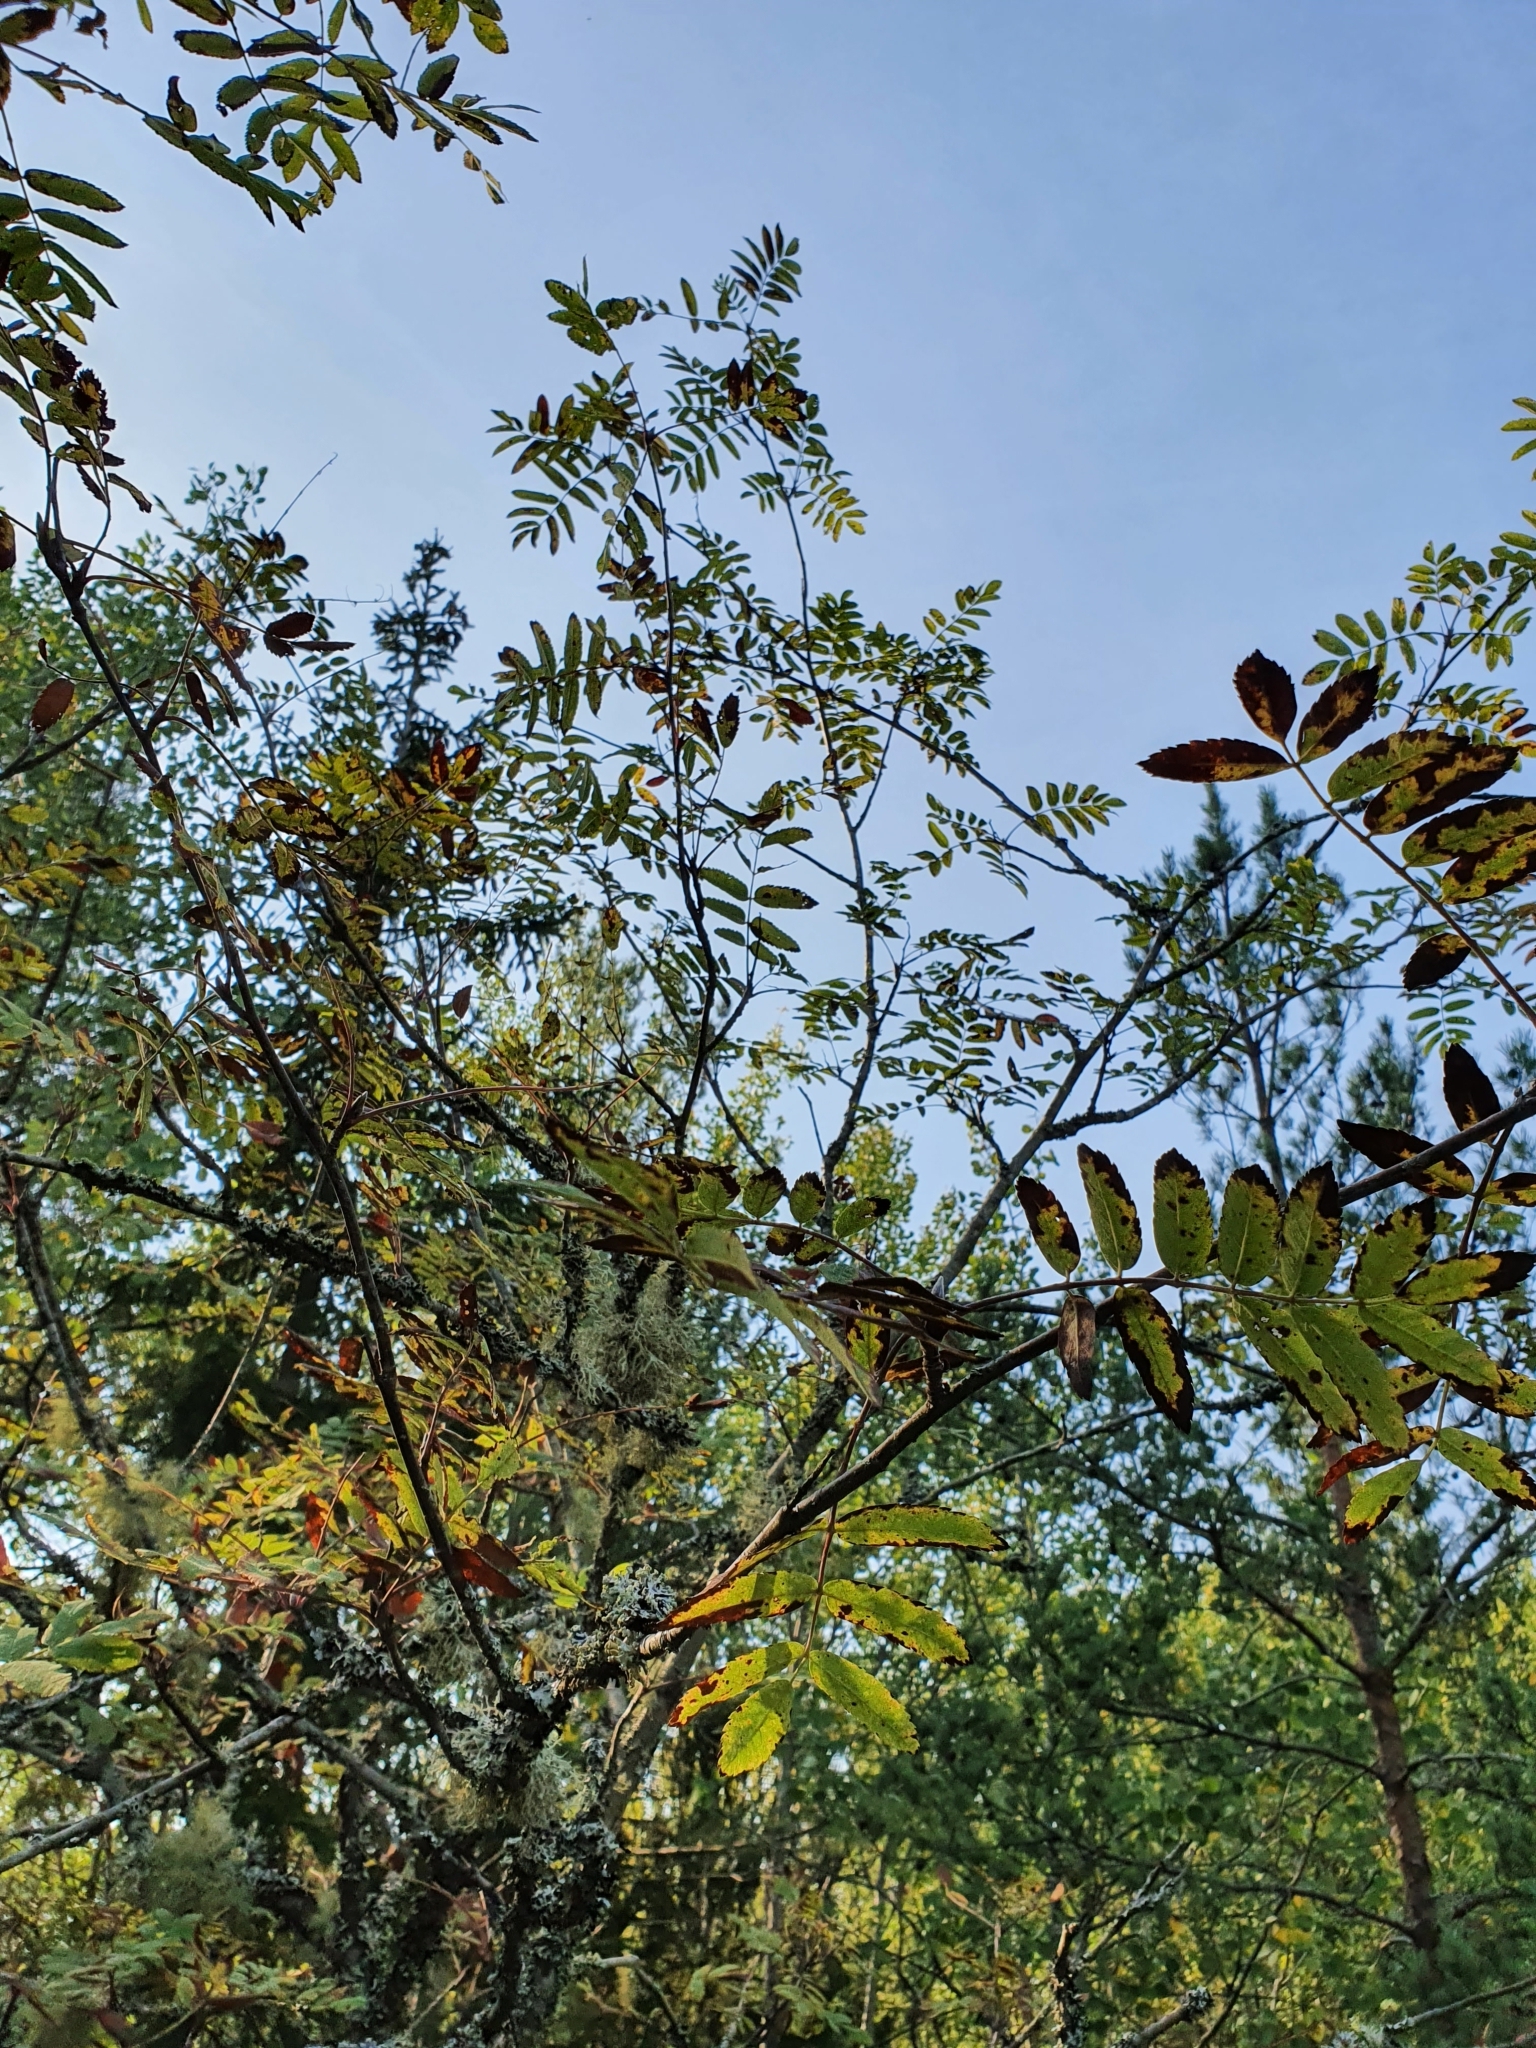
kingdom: Plantae
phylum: Tracheophyta
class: Magnoliopsida
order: Rosales
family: Rosaceae
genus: Sorbus
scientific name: Sorbus aucuparia
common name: Rowan
